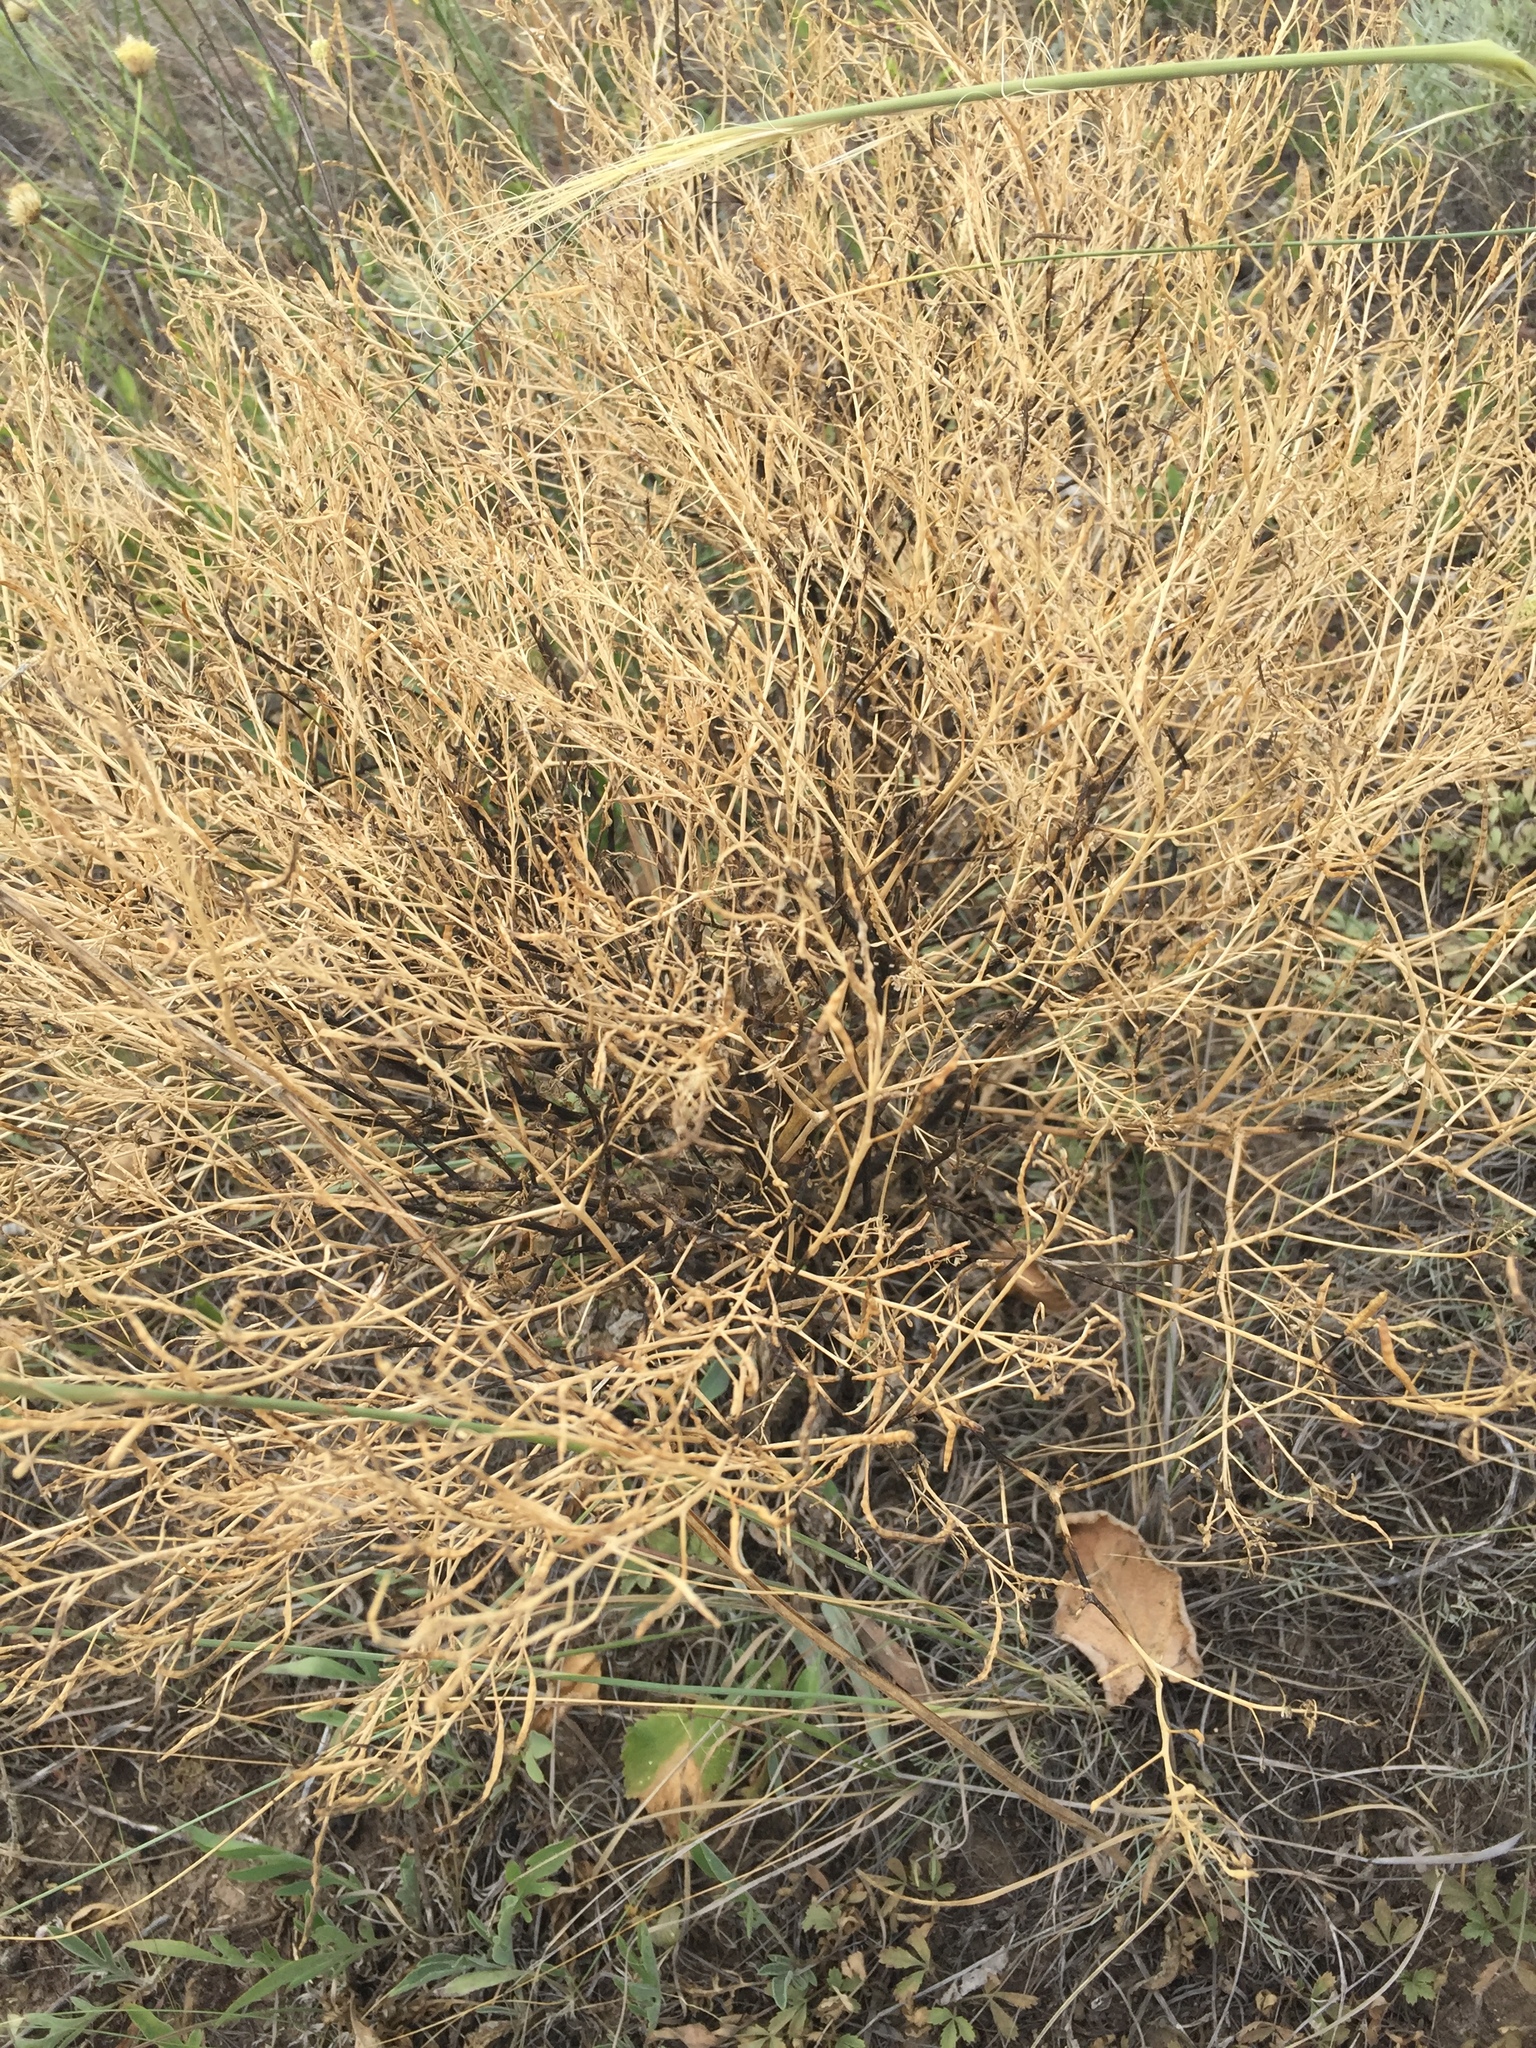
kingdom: Plantae
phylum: Tracheophyta
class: Magnoliopsida
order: Brassicales
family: Brassicaceae
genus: Brassica
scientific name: Brassica elongata
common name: Long-stalked rape
